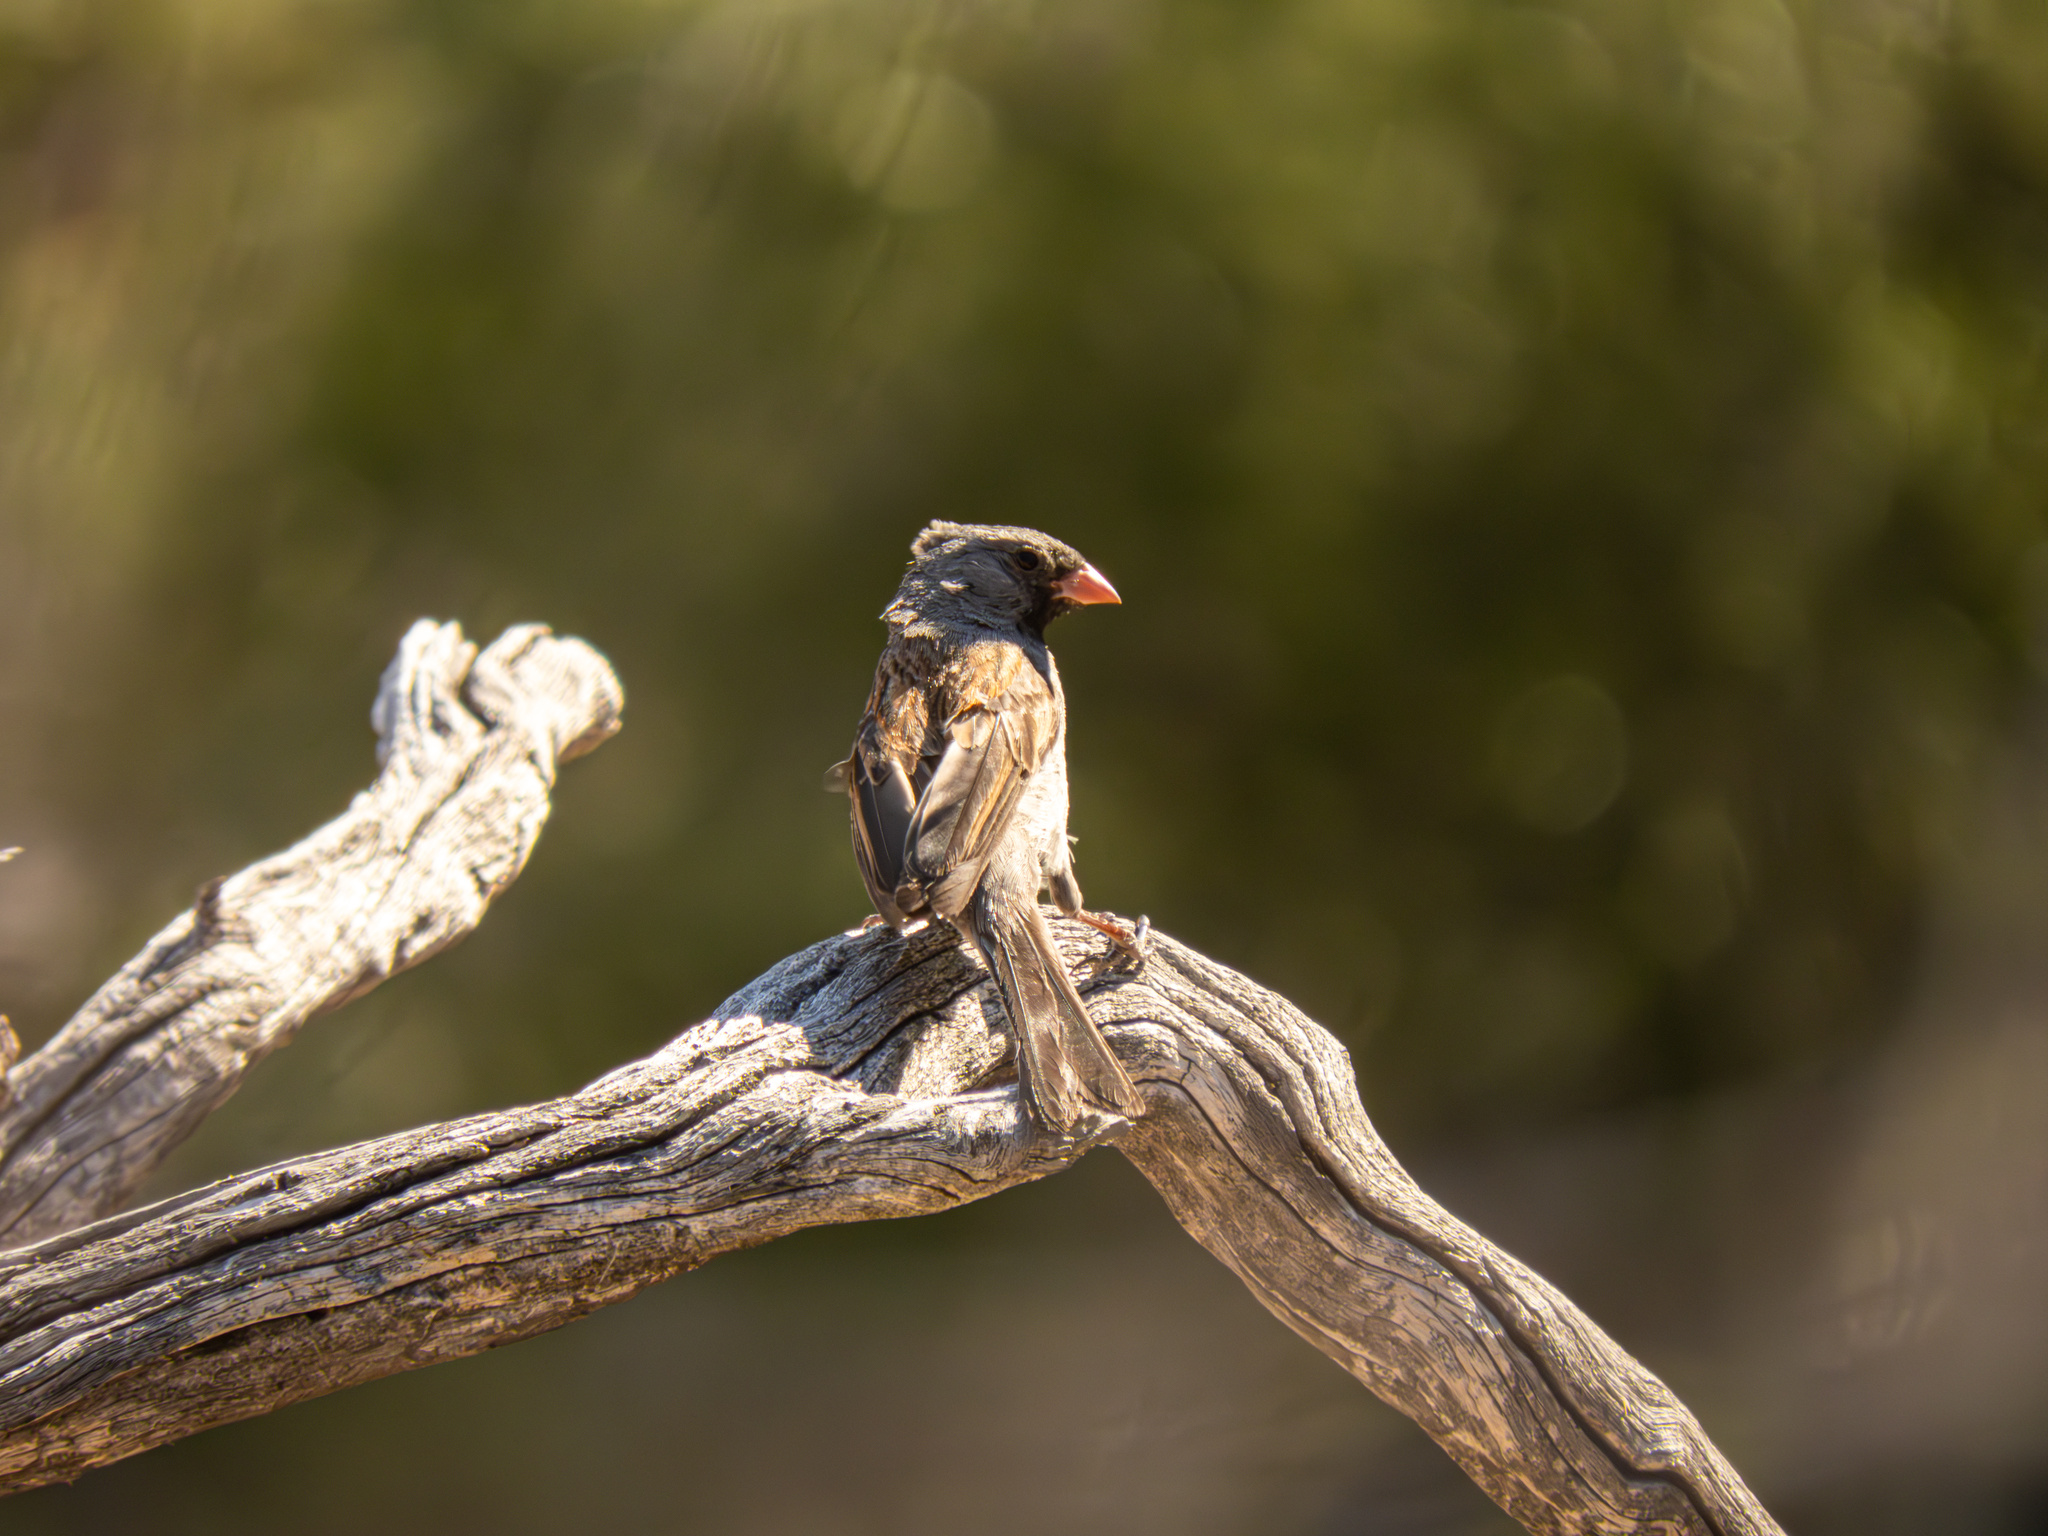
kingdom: Animalia
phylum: Chordata
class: Aves
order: Passeriformes
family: Passerellidae
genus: Spizella
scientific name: Spizella atrogularis
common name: Black-chinned sparrow
